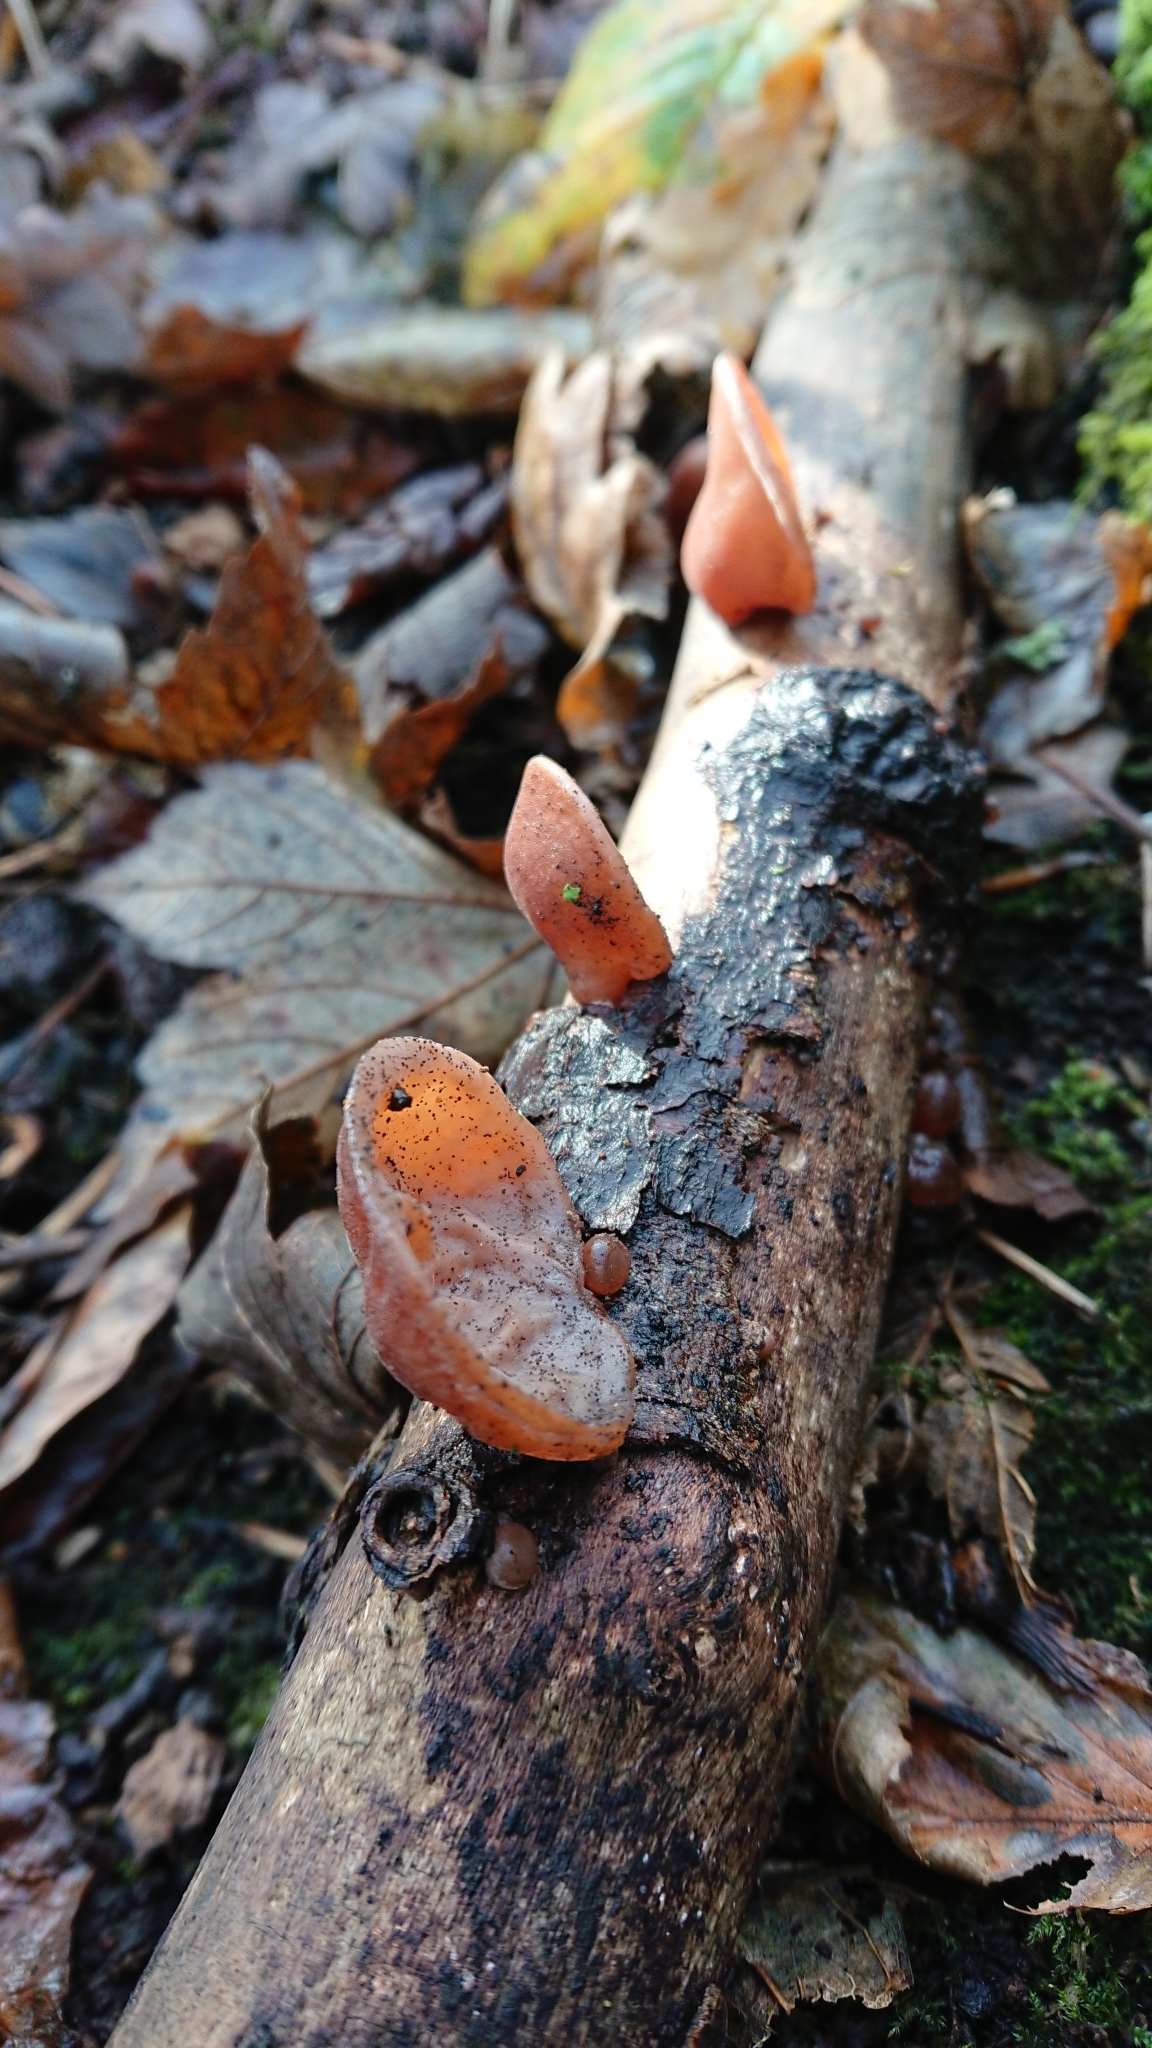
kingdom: Fungi
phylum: Basidiomycota
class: Agaricomycetes
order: Auriculariales
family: Auriculariaceae
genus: Auricularia
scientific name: Auricularia auricula-judae
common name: Jelly ear
